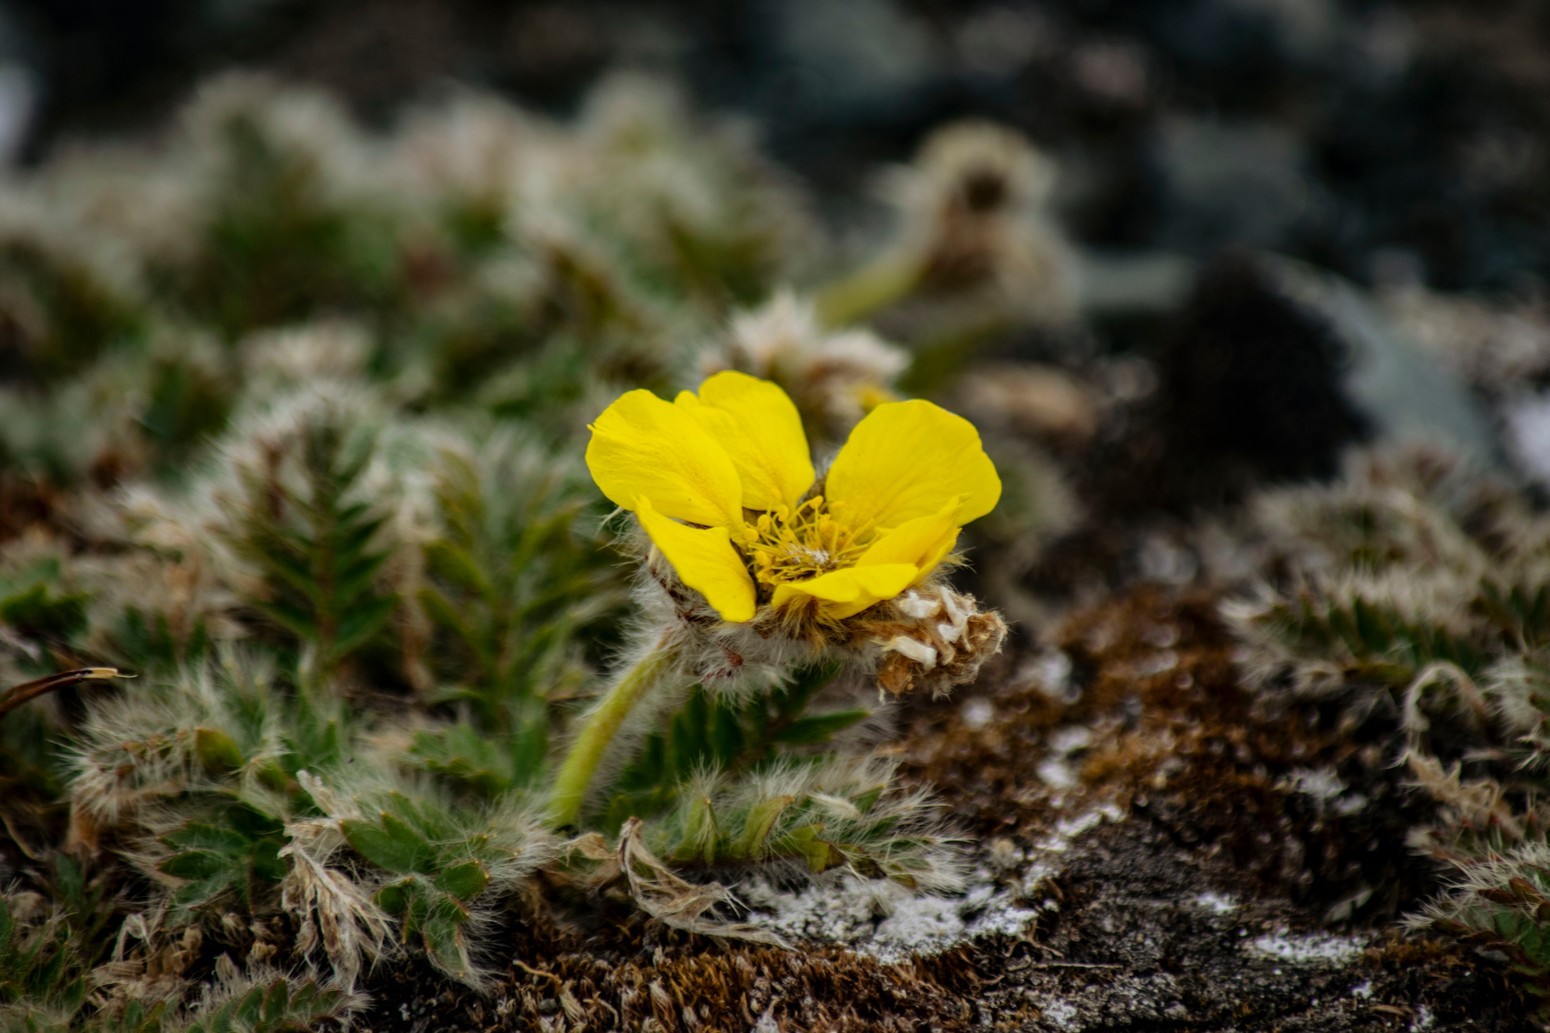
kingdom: Plantae
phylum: Tracheophyta
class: Magnoliopsida
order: Rosales
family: Rosaceae
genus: Geum
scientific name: Geum glaciale
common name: Glacier avens
